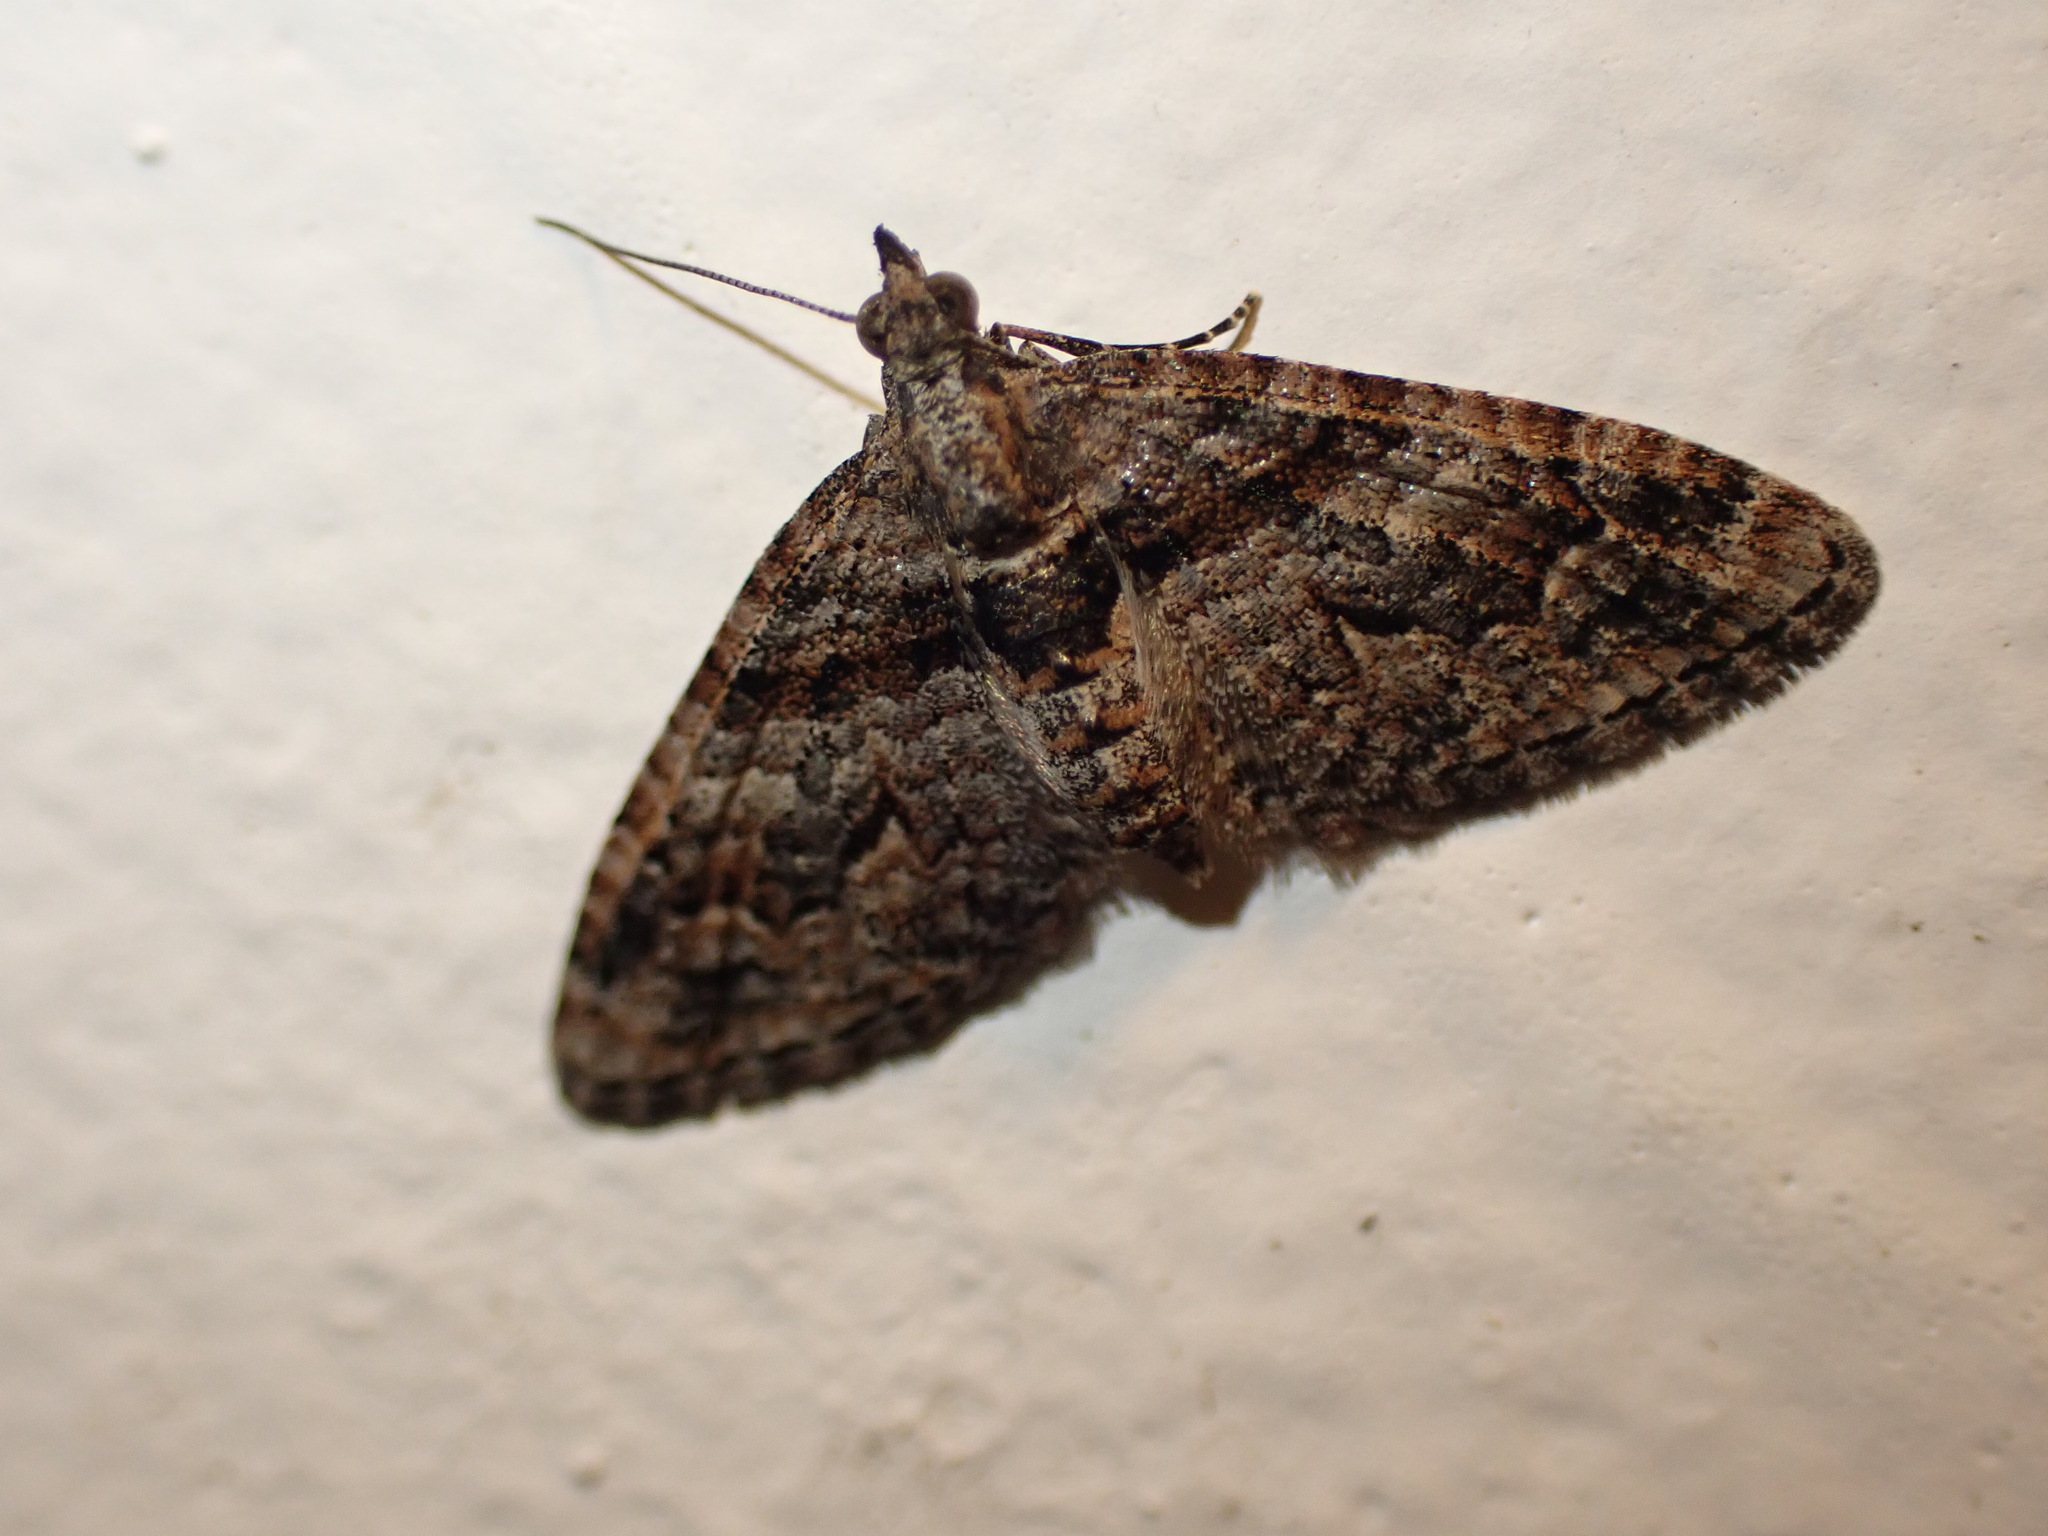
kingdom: Animalia
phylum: Arthropoda
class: Insecta
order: Lepidoptera
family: Geometridae
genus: Phrissogonus
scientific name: Phrissogonus laticostata
